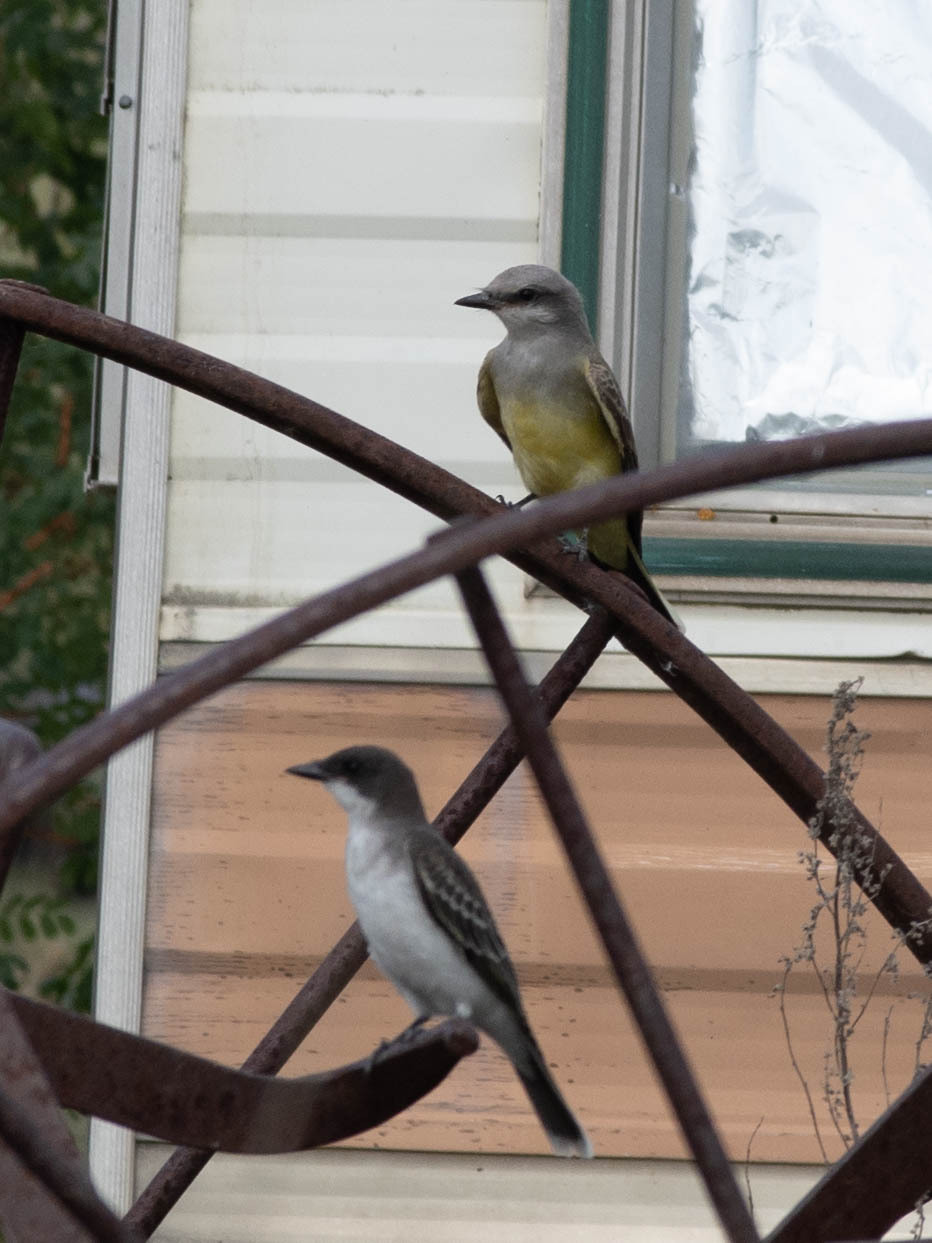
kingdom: Animalia
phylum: Chordata
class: Aves
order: Passeriformes
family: Tyrannidae
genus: Tyrannus
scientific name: Tyrannus tyrannus
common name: Eastern kingbird
